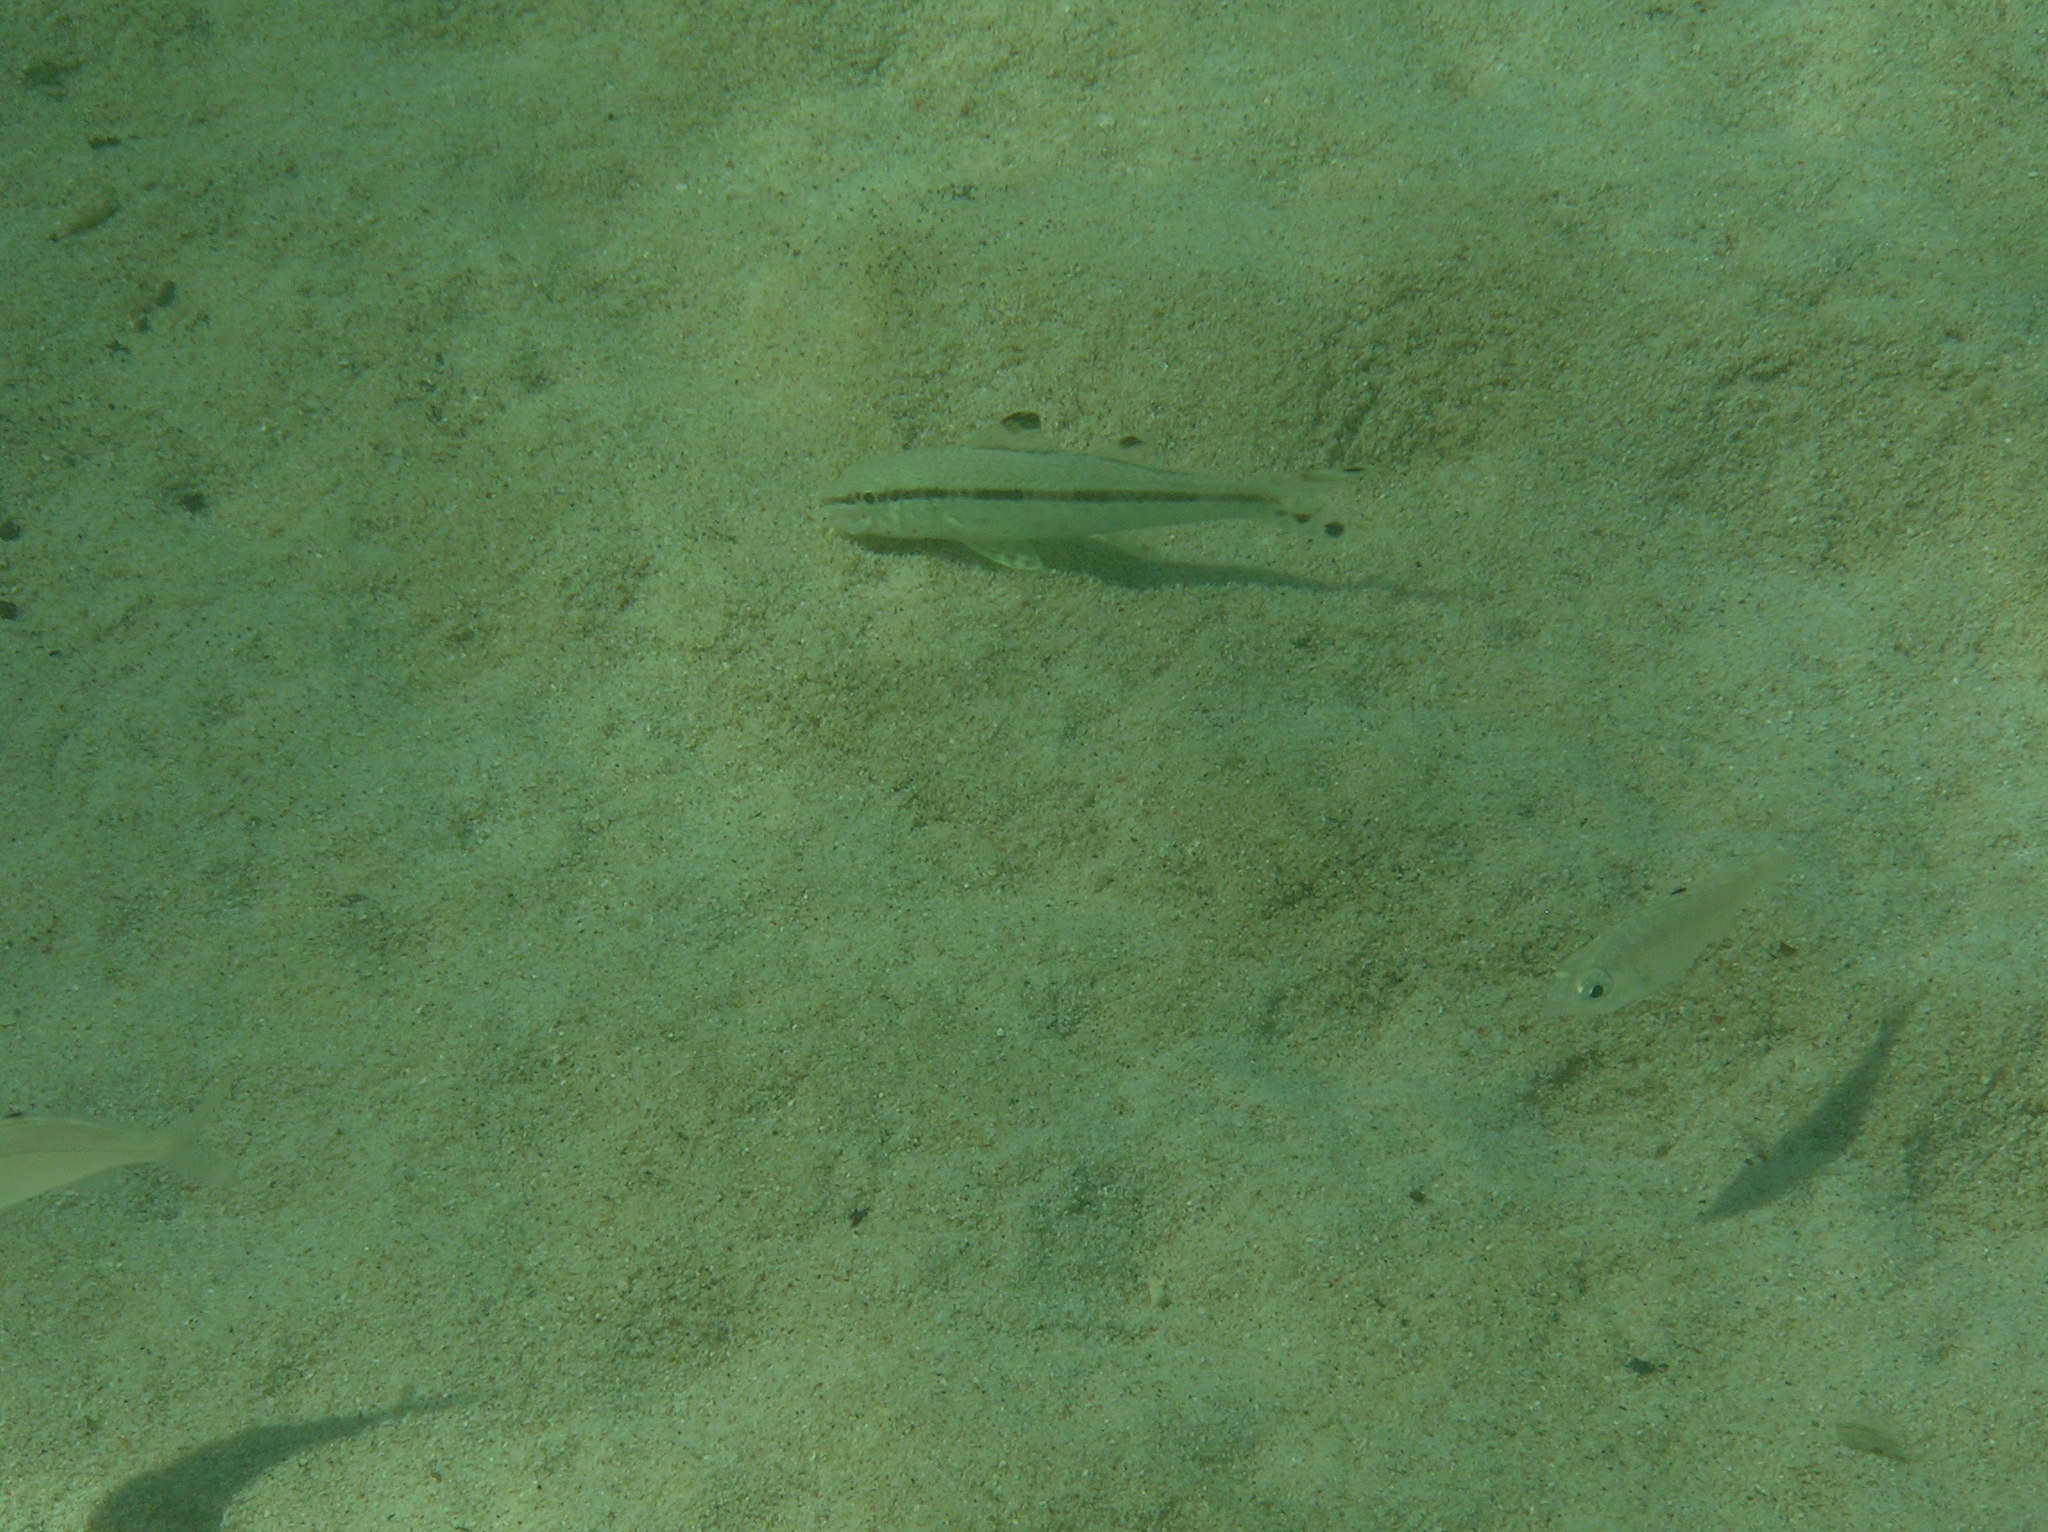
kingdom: Animalia
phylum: Chordata
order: Perciformes
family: Mullidae
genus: Upeneus
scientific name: Upeneus tragula
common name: Freckled goatfish
